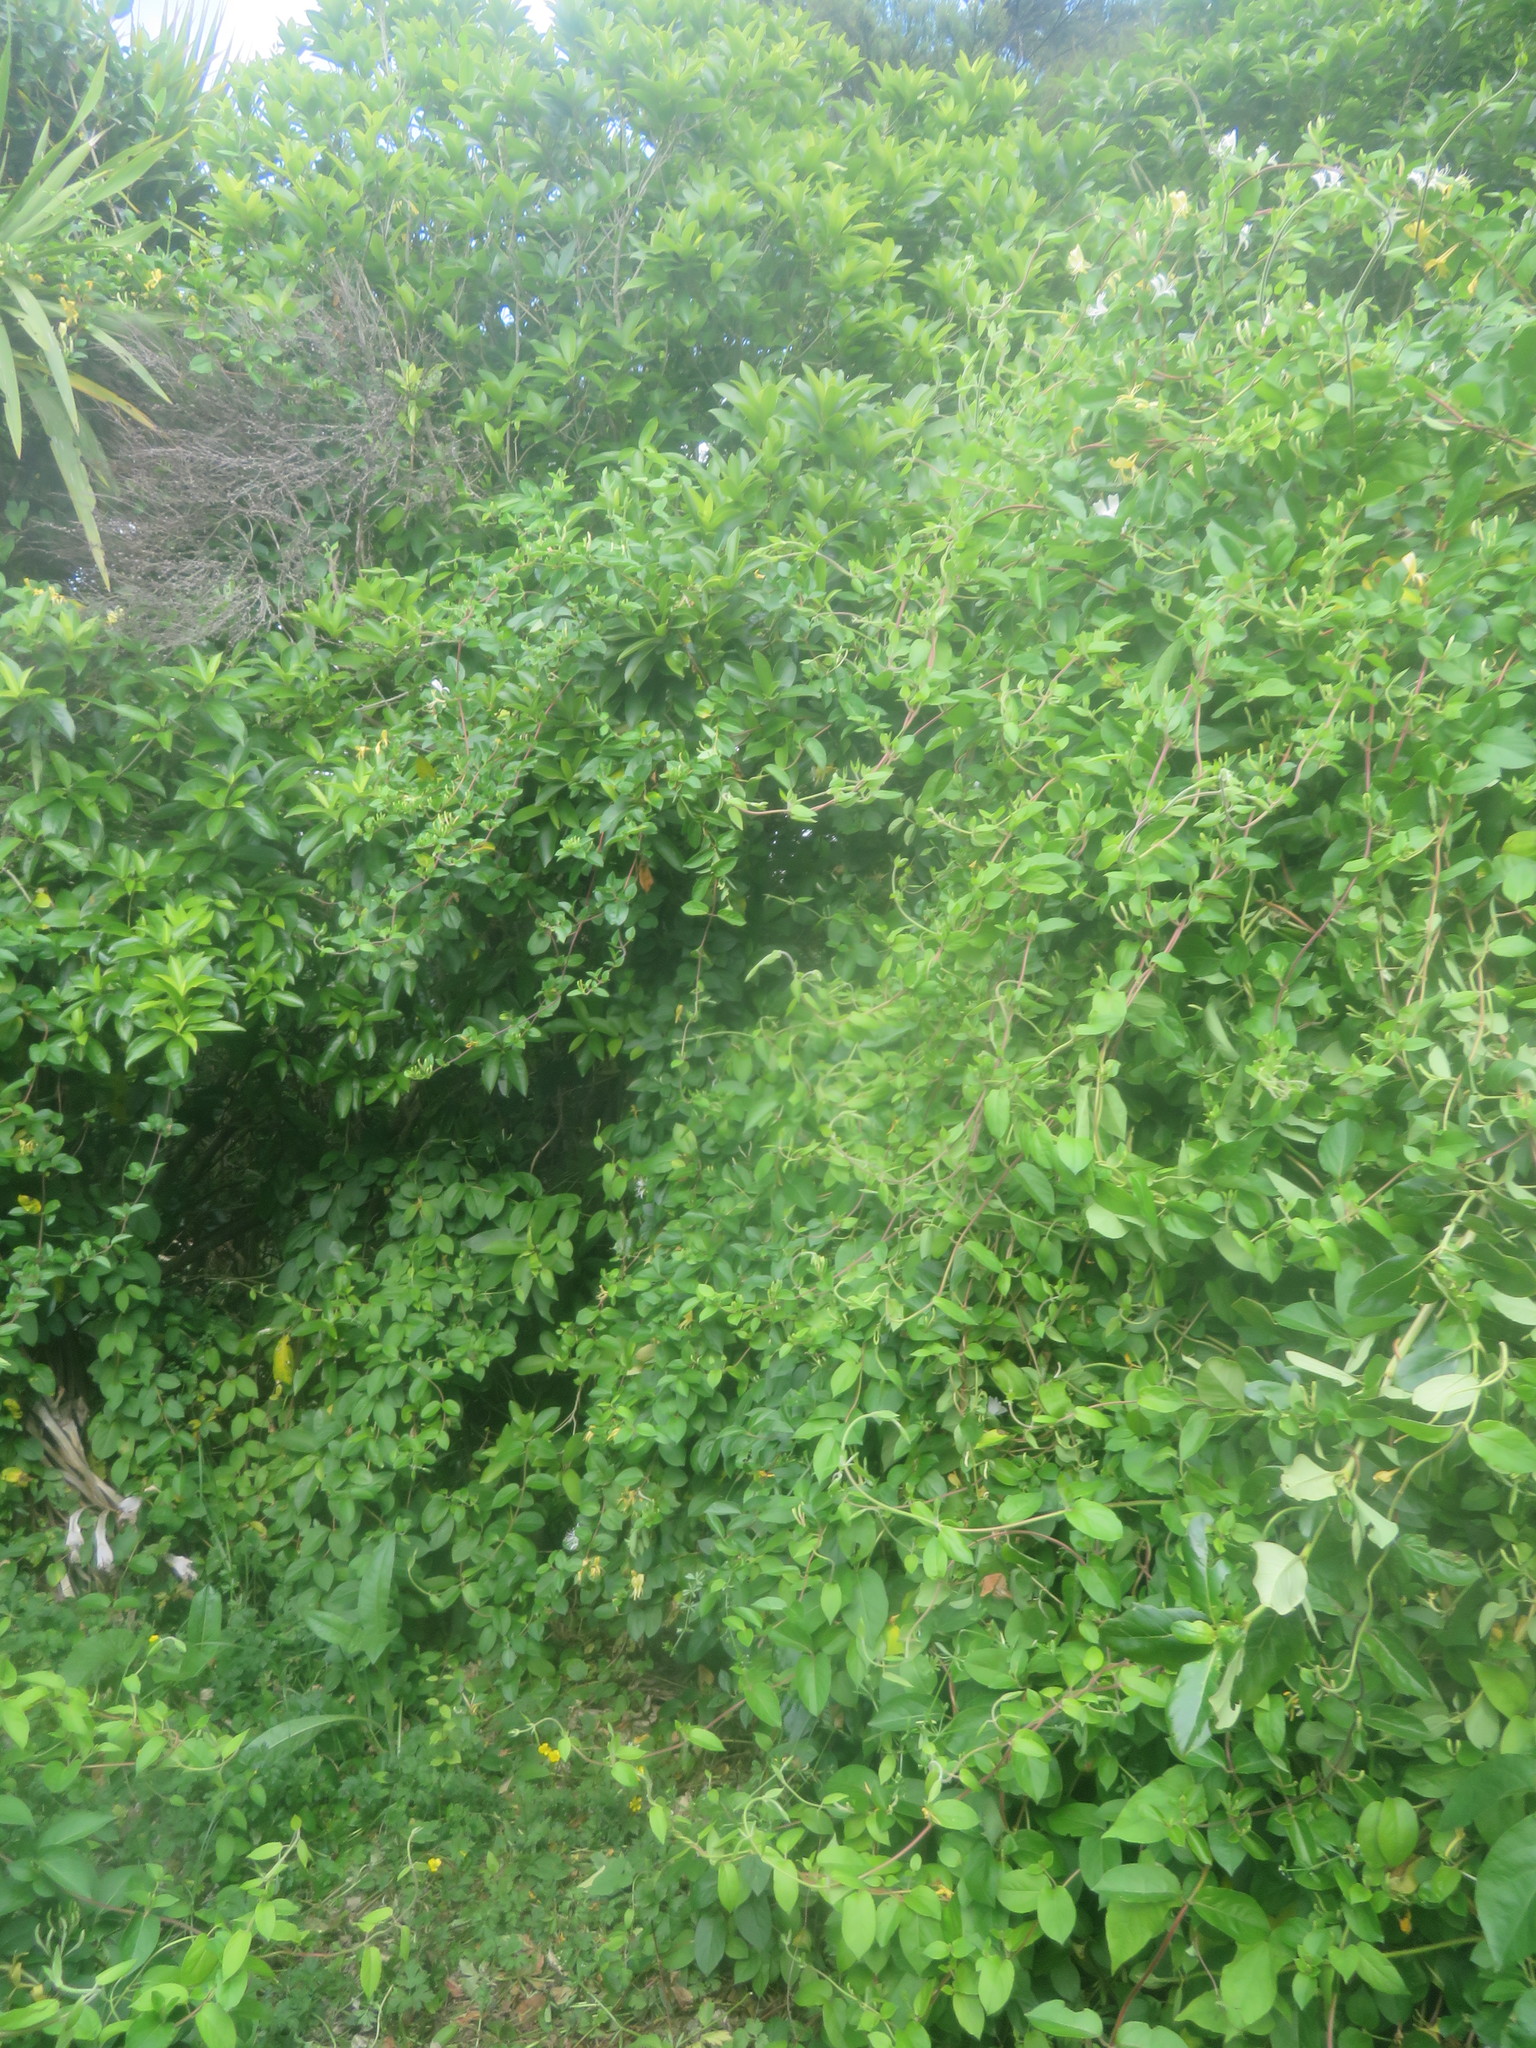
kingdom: Plantae
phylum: Tracheophyta
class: Magnoliopsida
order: Dipsacales
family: Caprifoliaceae
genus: Lonicera
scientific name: Lonicera japonica
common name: Japanese honeysuckle
